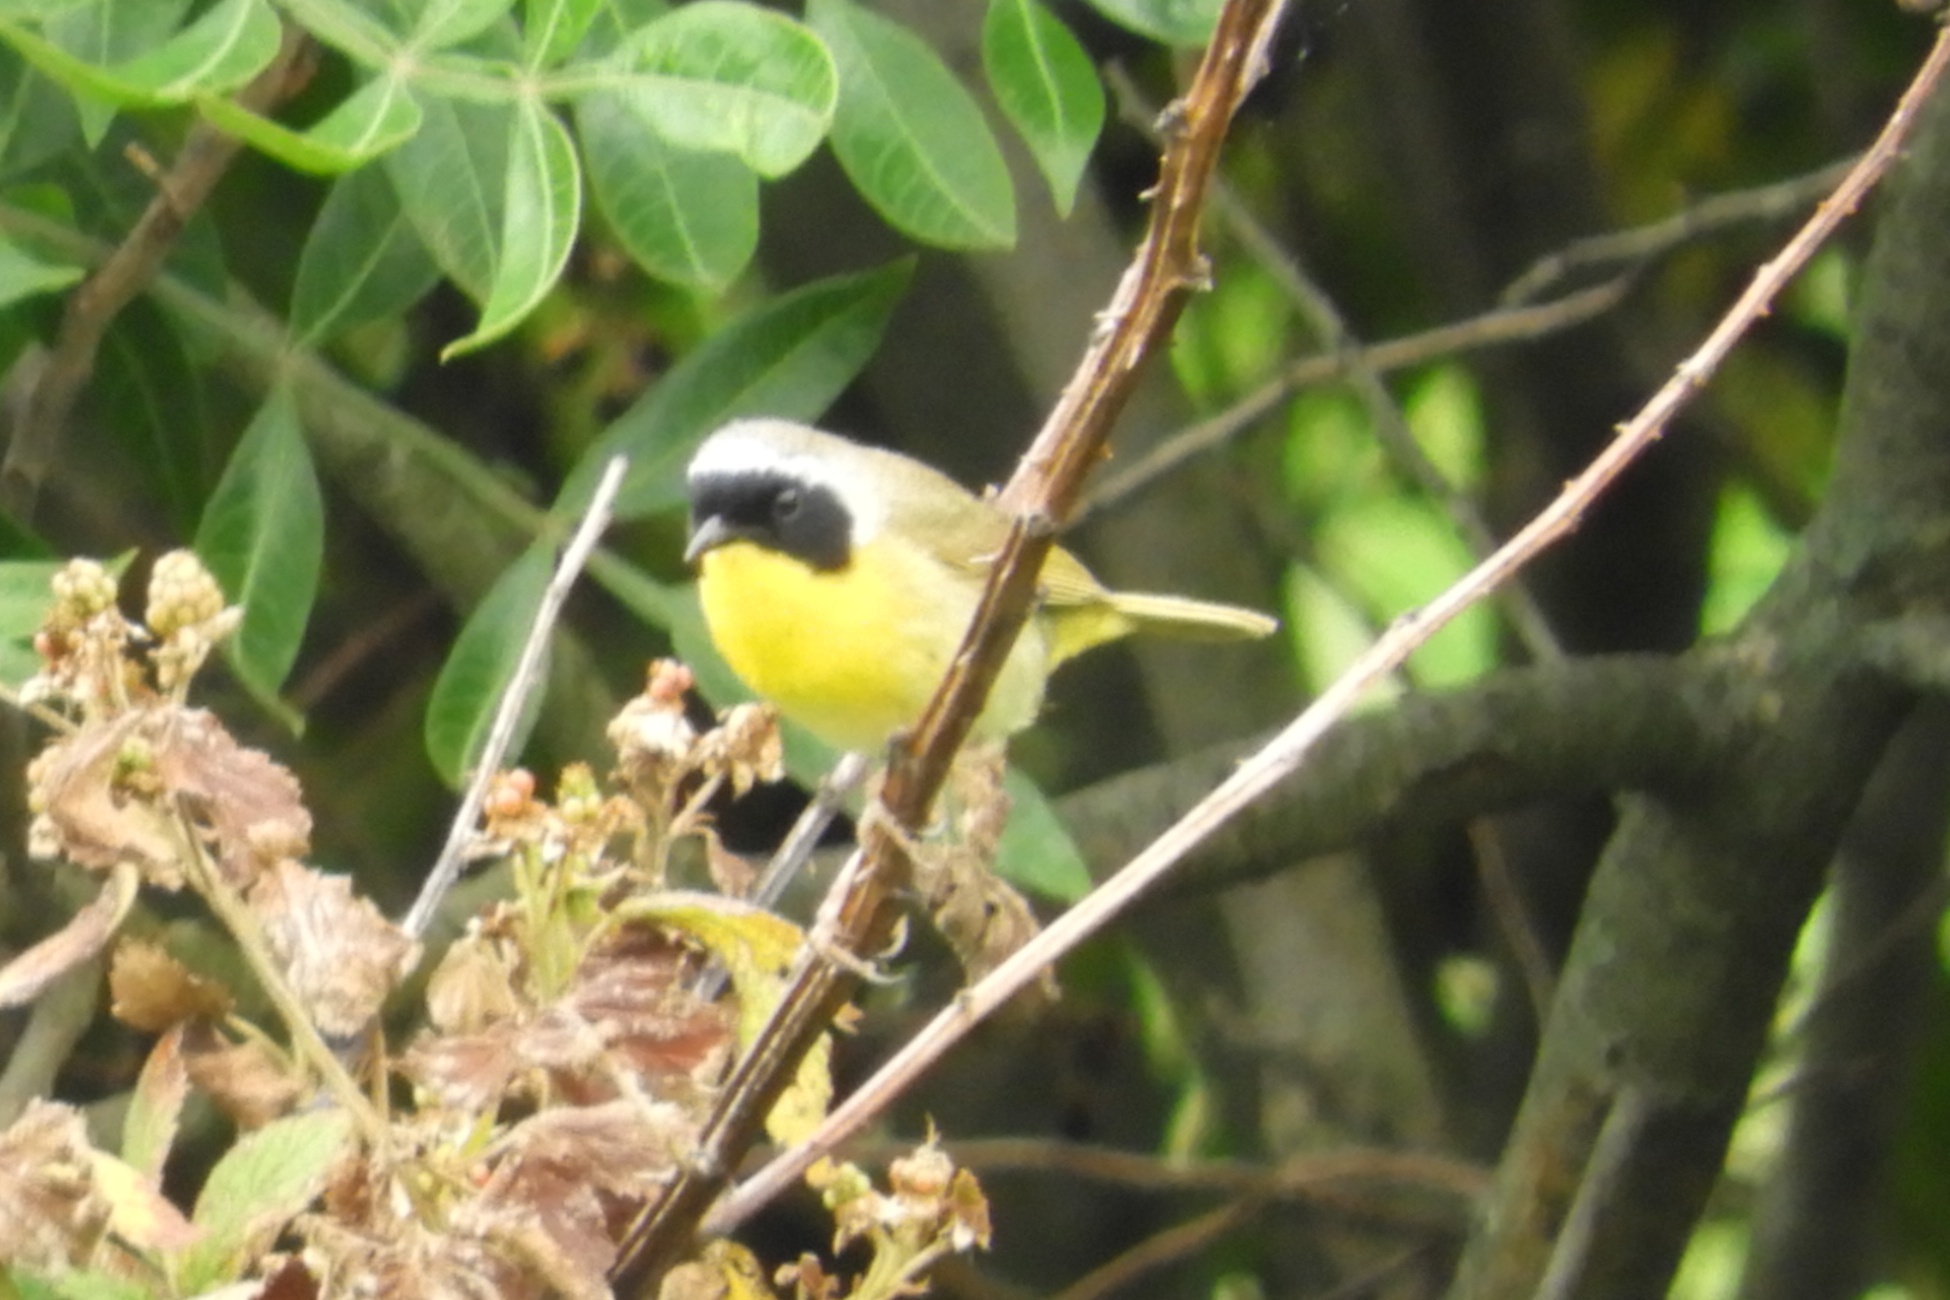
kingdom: Animalia
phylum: Chordata
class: Aves
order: Passeriformes
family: Parulidae
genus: Geothlypis
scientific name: Geothlypis trichas
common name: Common yellowthroat
